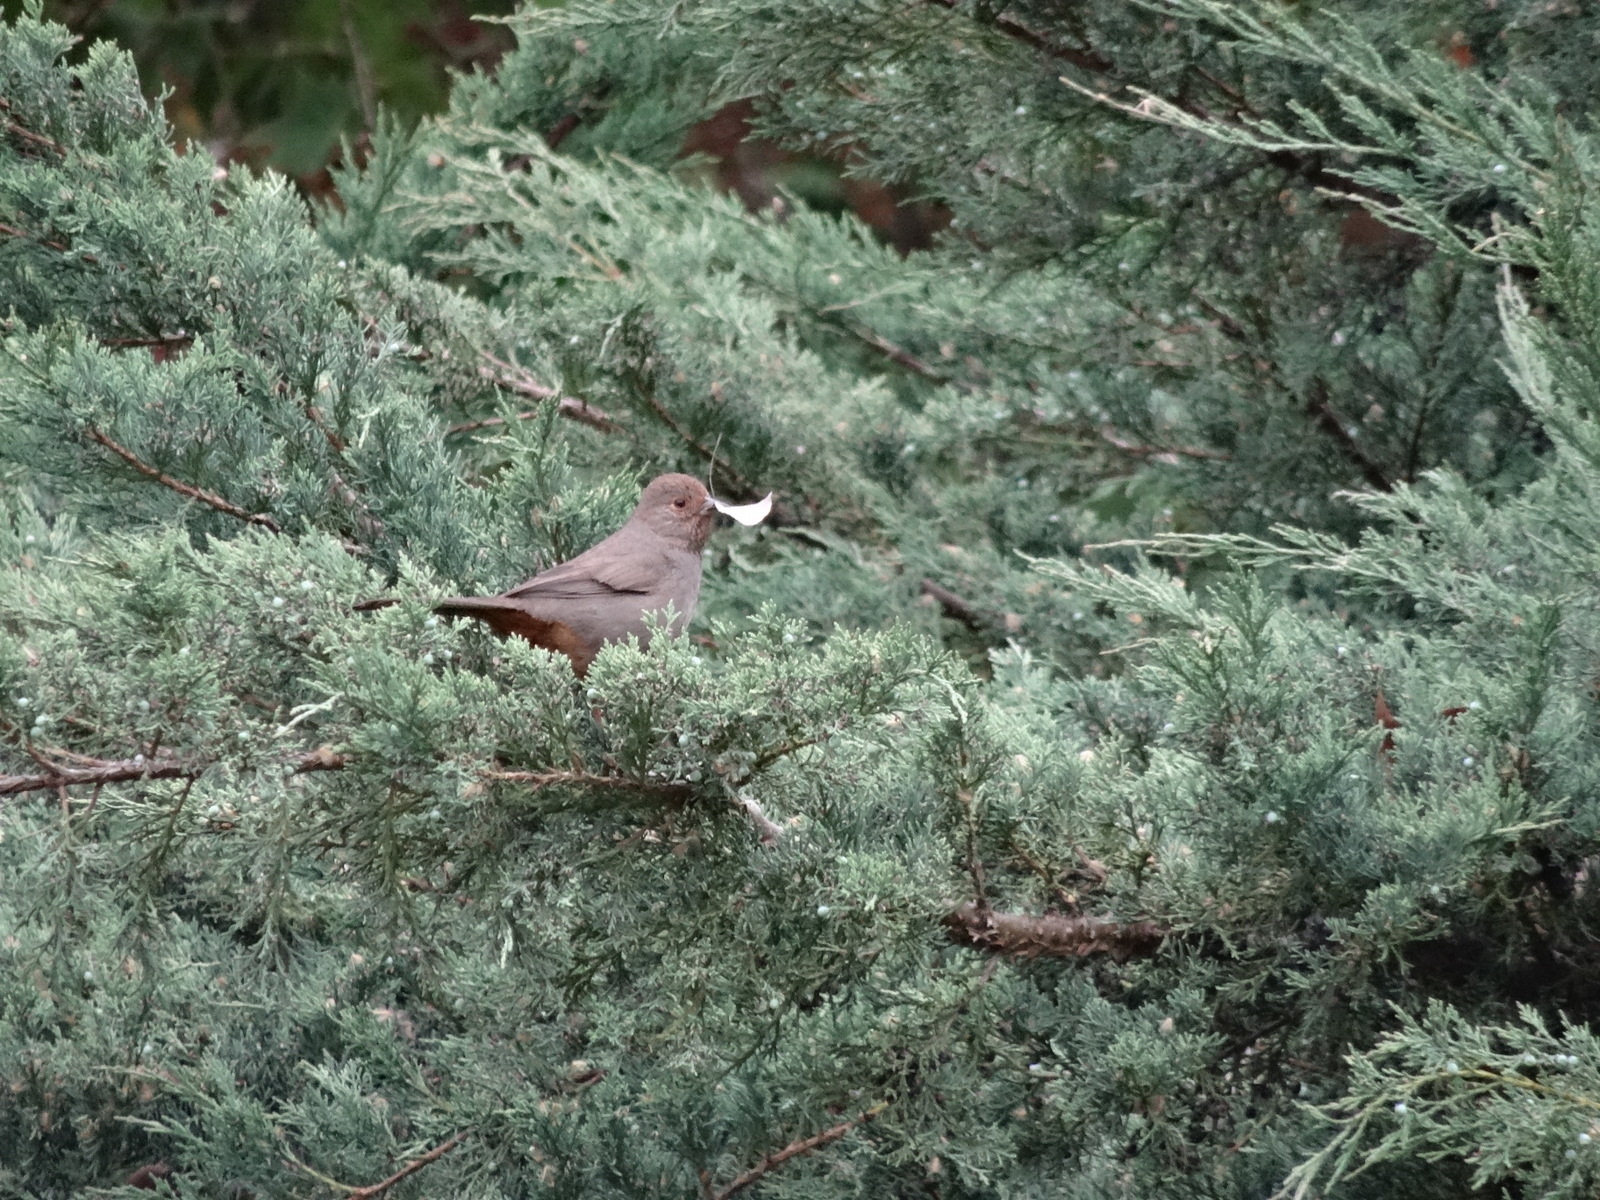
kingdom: Animalia
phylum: Chordata
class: Aves
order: Passeriformes
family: Passerellidae
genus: Melozone
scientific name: Melozone crissalis
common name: California towhee
